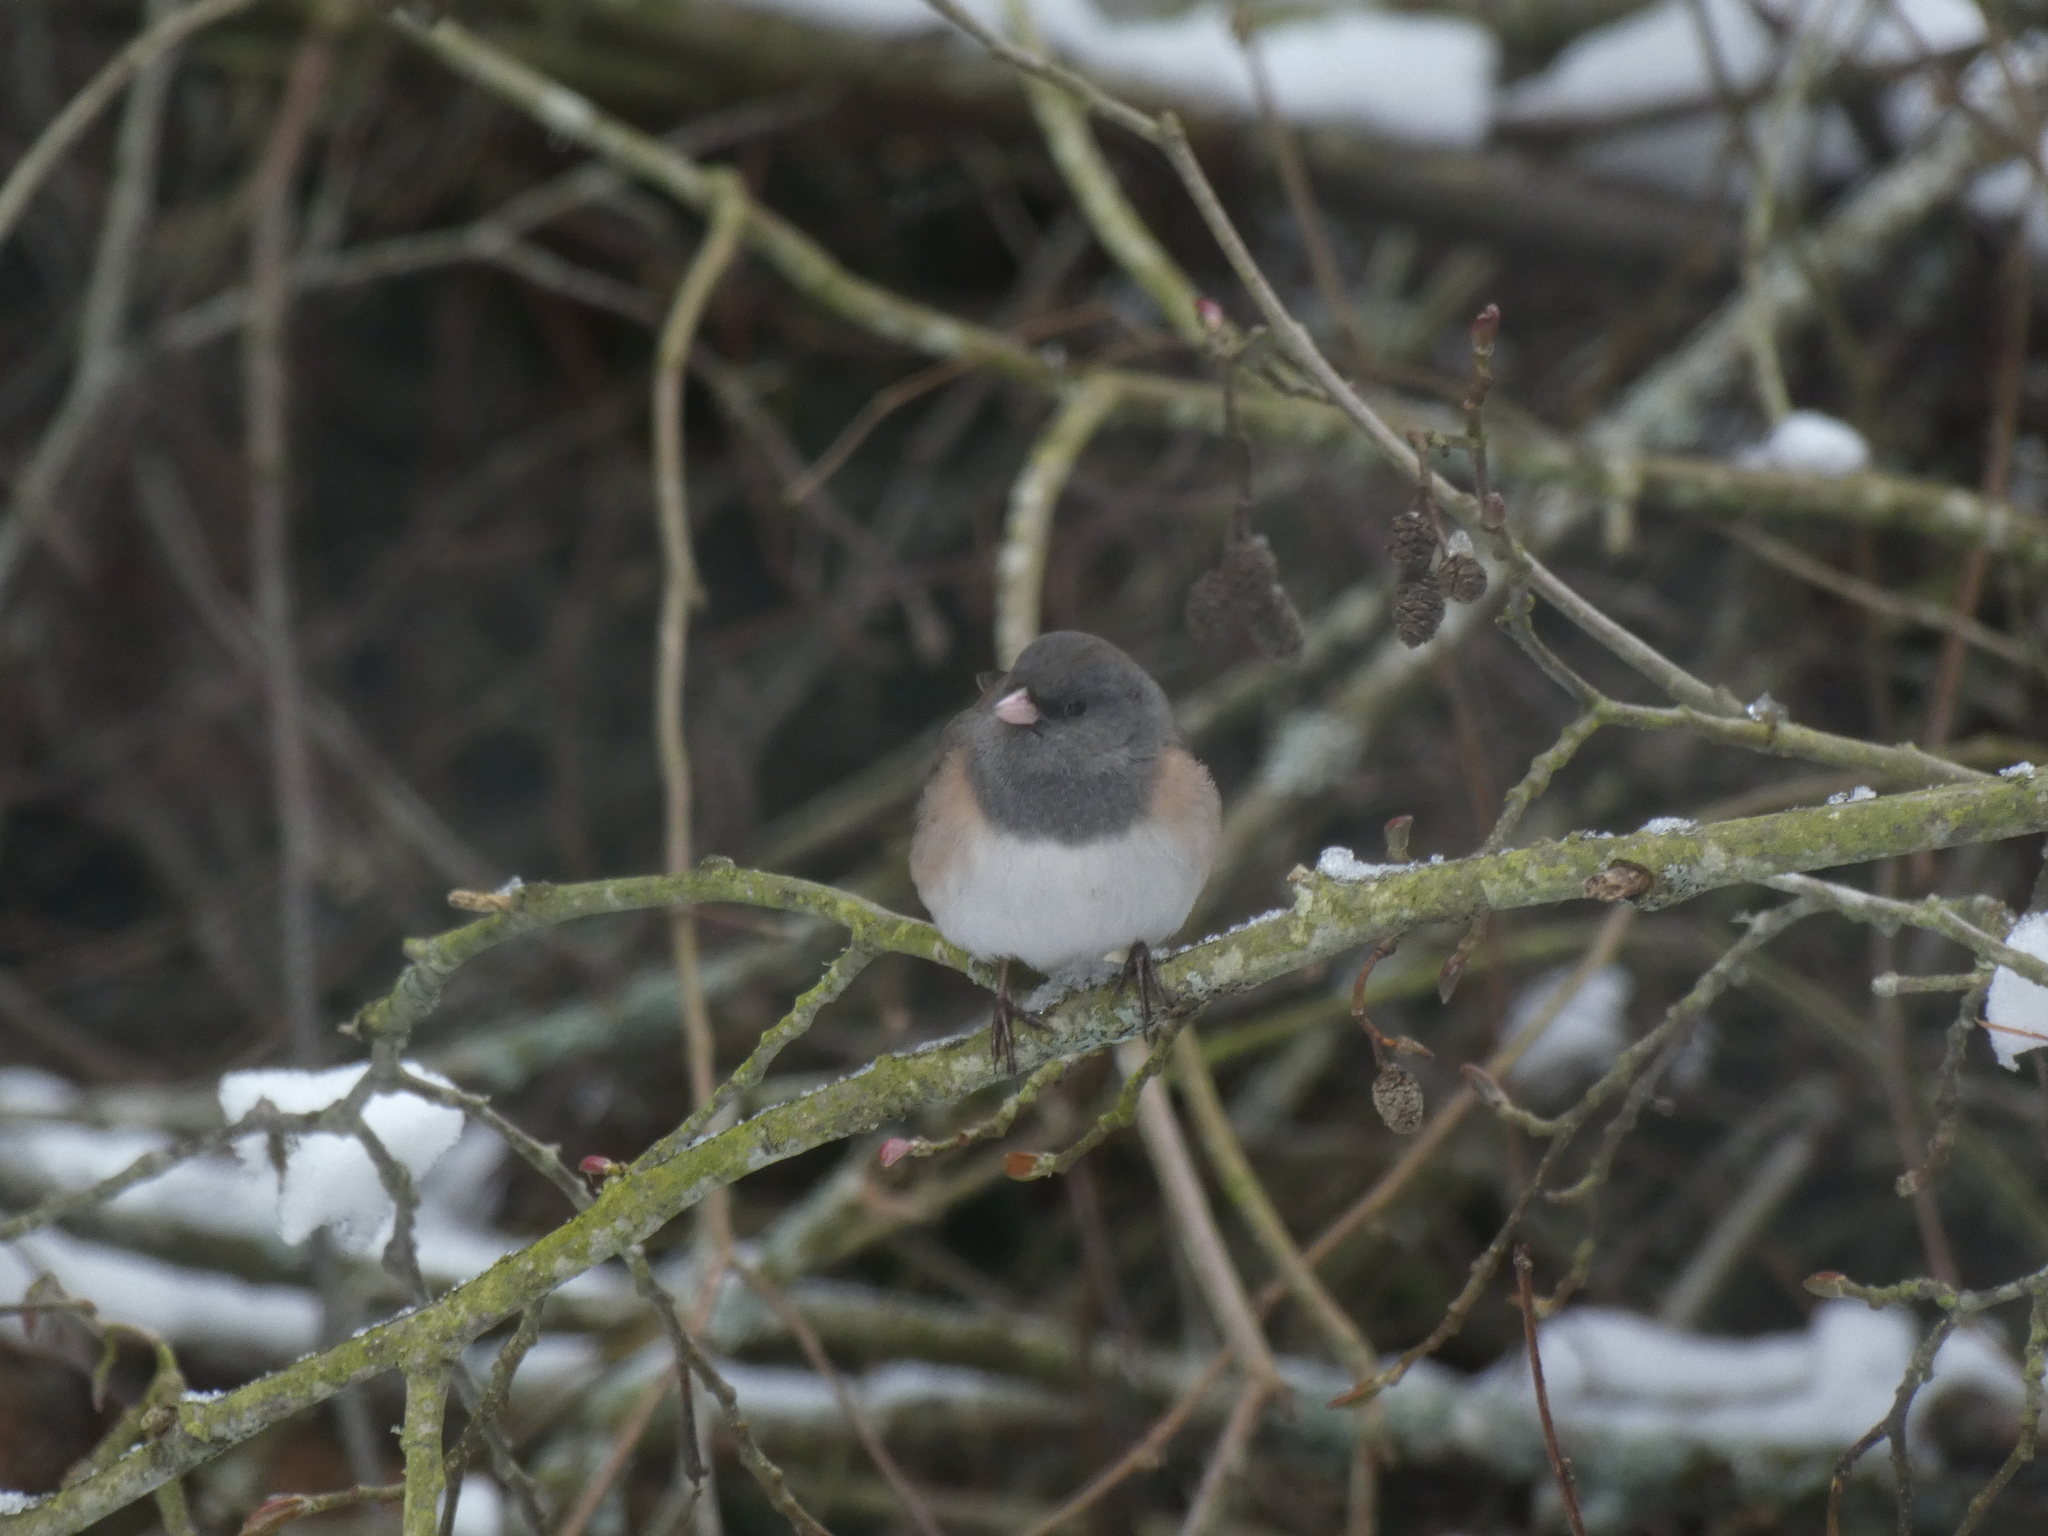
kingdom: Animalia
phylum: Chordata
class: Aves
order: Passeriformes
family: Passerellidae
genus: Junco
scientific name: Junco hyemalis
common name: Dark-eyed junco
